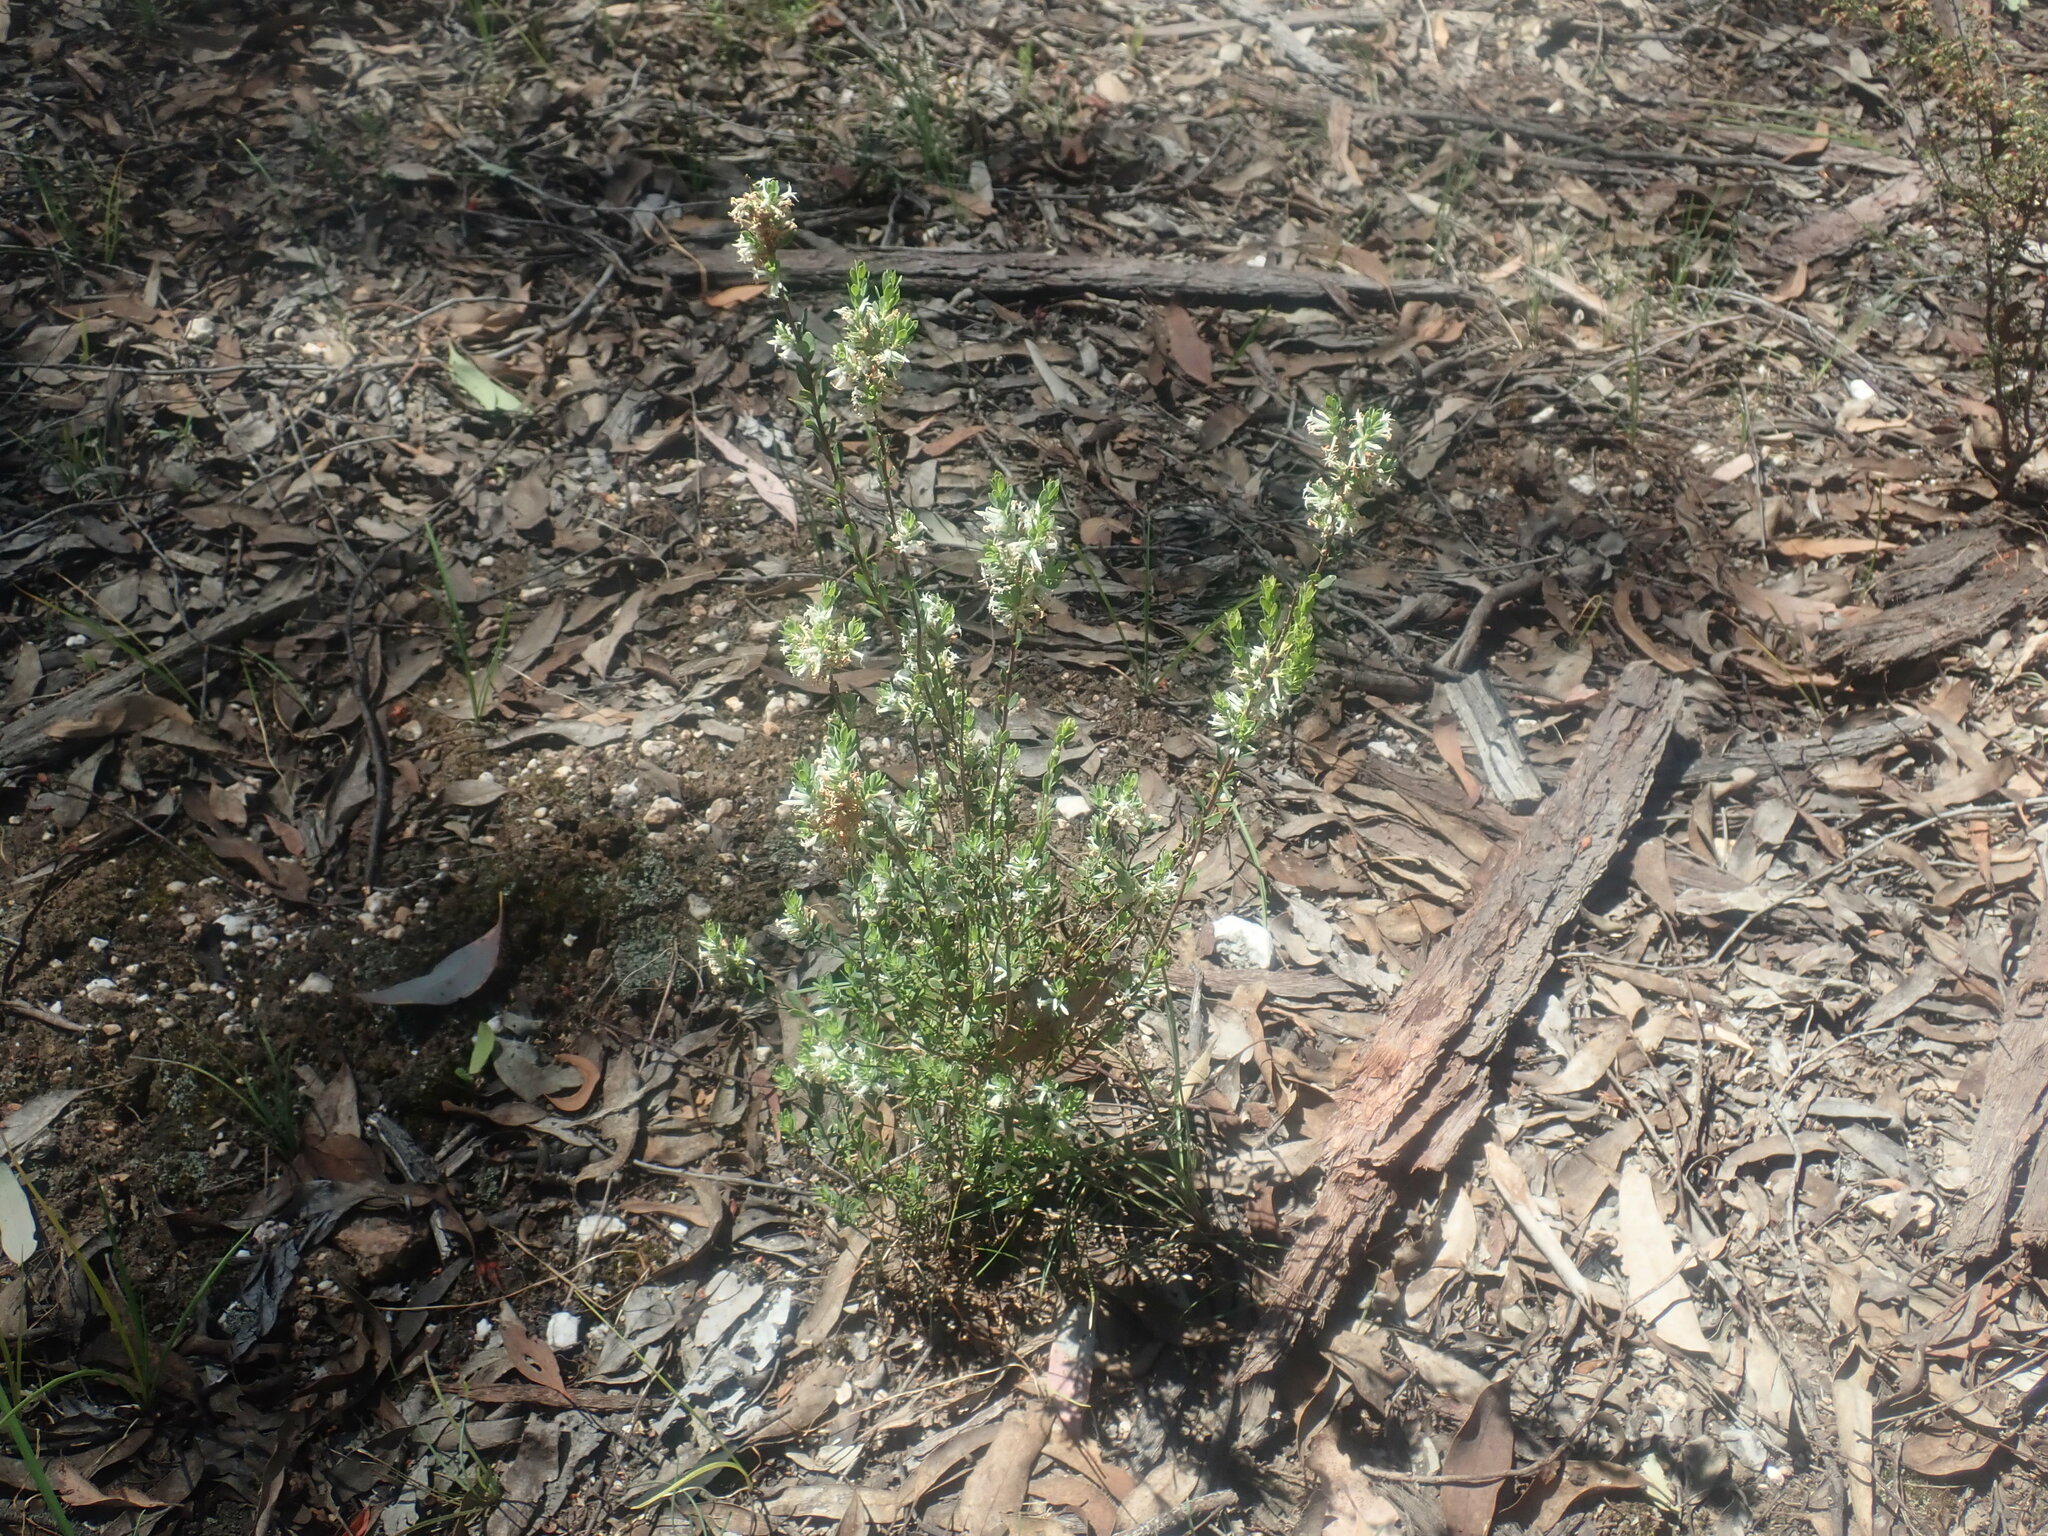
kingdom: Plantae
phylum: Tracheophyta
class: Magnoliopsida
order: Ericales
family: Ericaceae
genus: Brachyloma
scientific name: Brachyloma daphnoides
